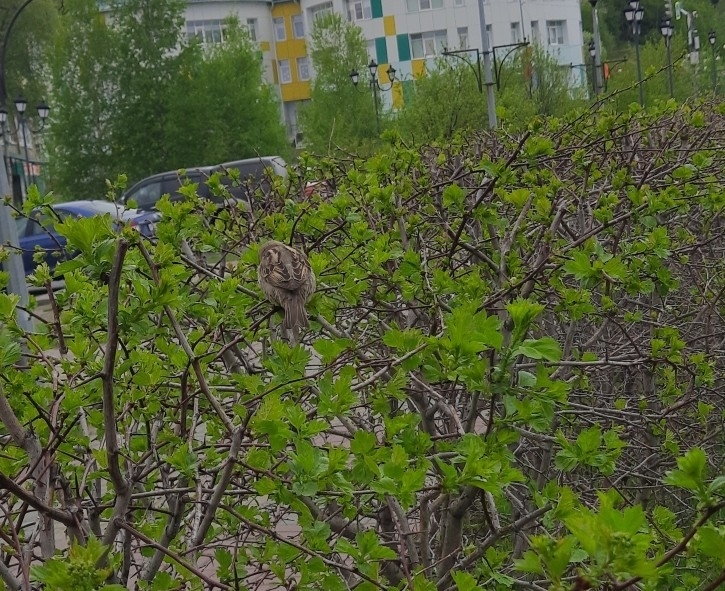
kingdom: Animalia
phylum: Chordata
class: Aves
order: Passeriformes
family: Passeridae
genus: Passer
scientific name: Passer domesticus
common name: House sparrow
